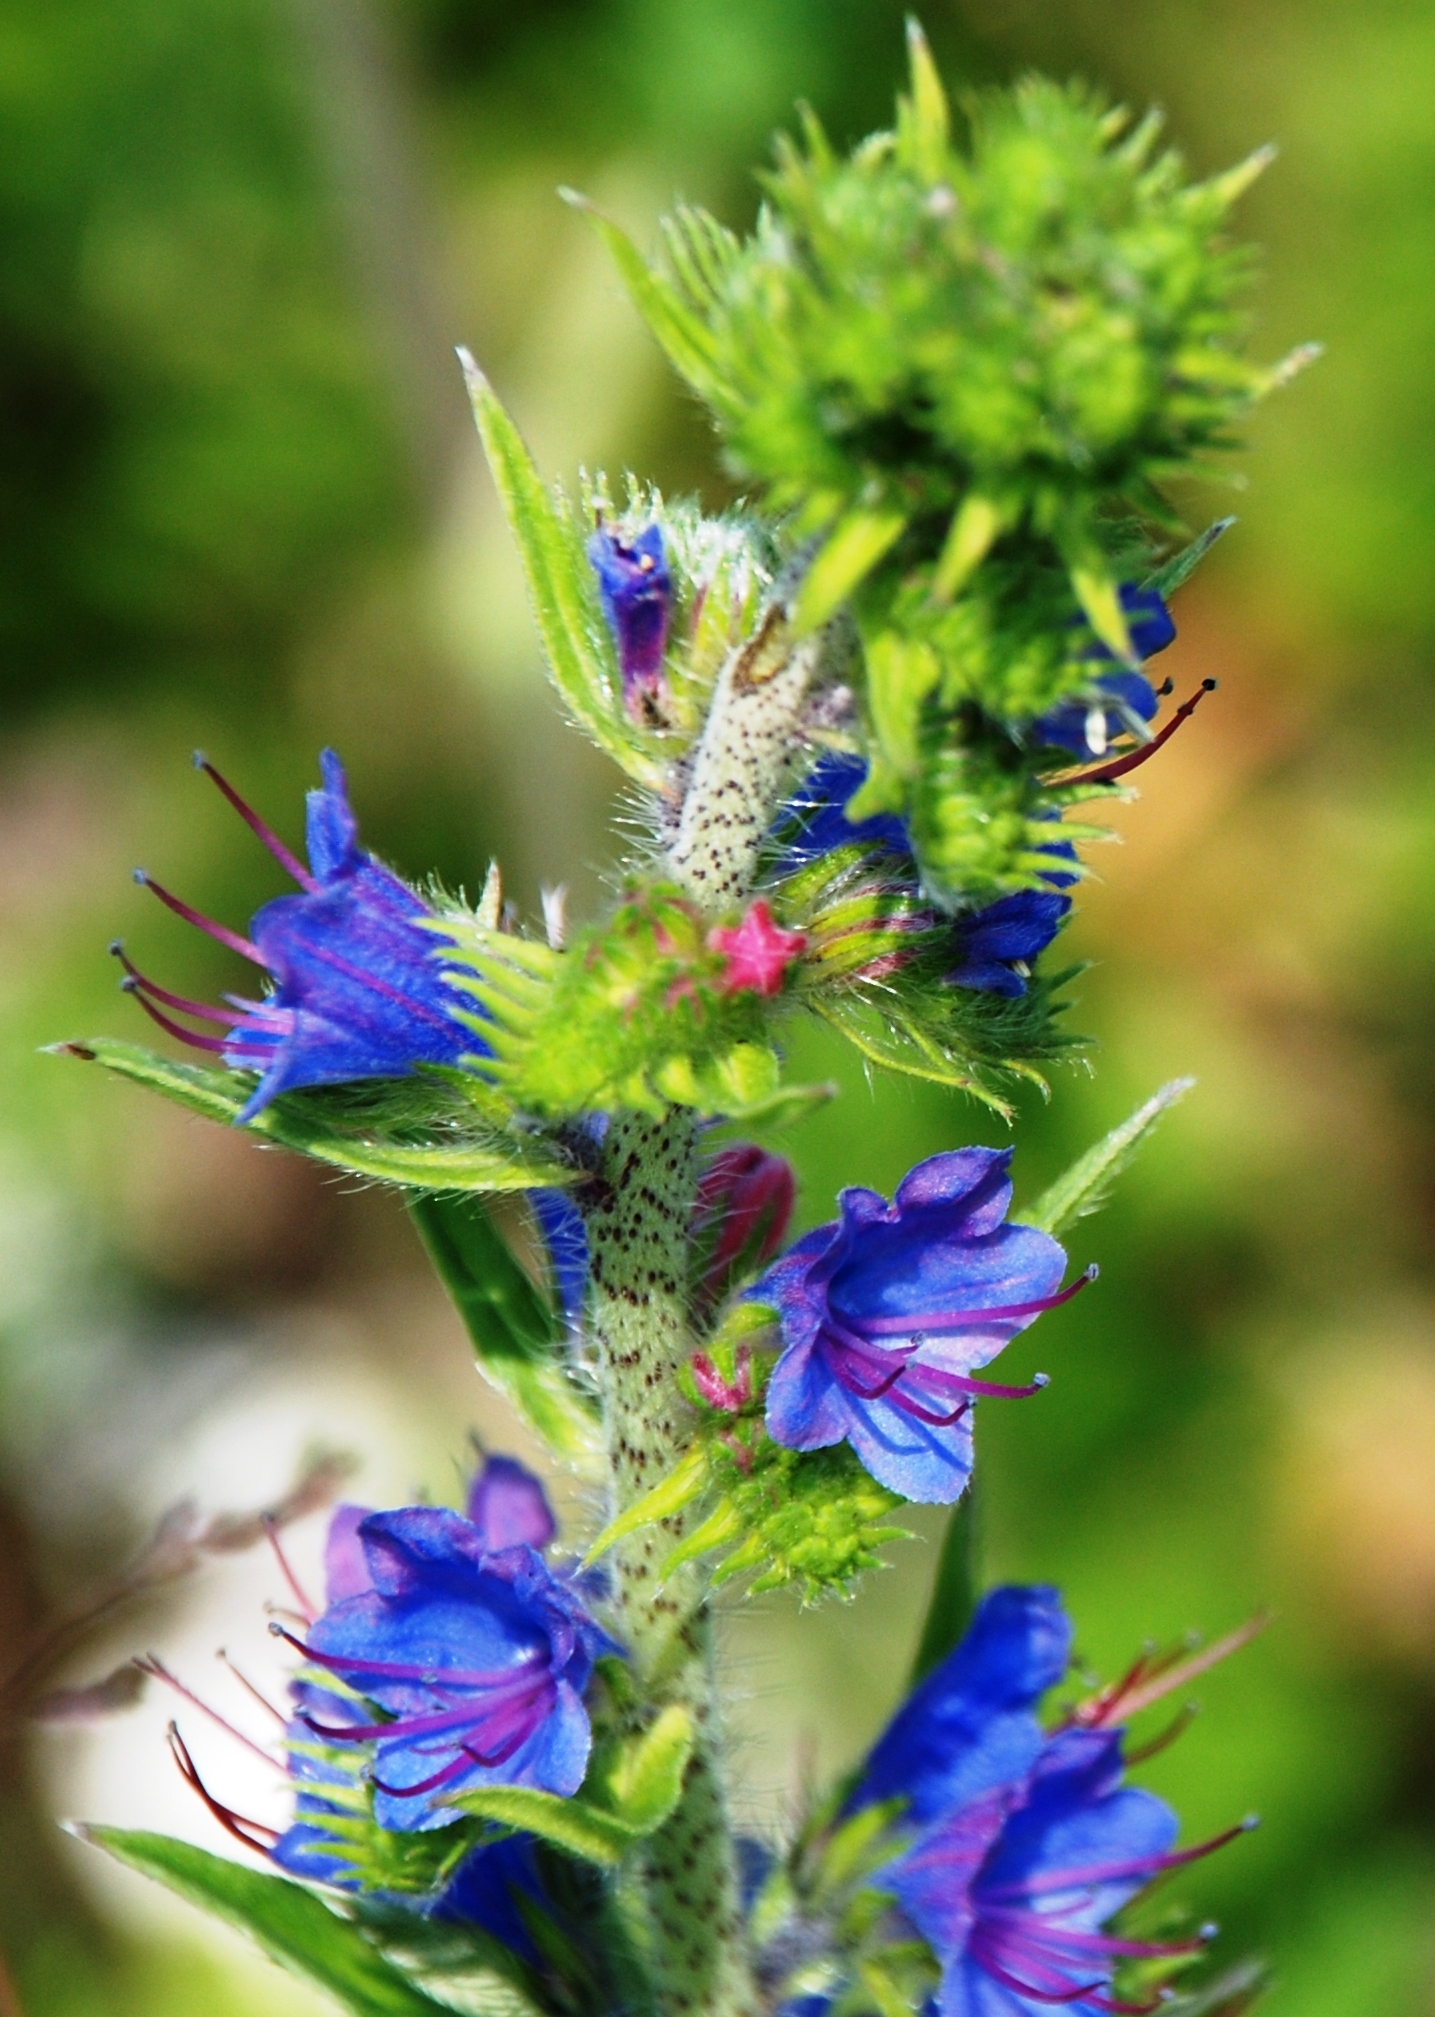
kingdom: Plantae
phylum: Tracheophyta
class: Magnoliopsida
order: Boraginales
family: Boraginaceae
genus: Echium
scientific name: Echium vulgare
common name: Common viper's bugloss
